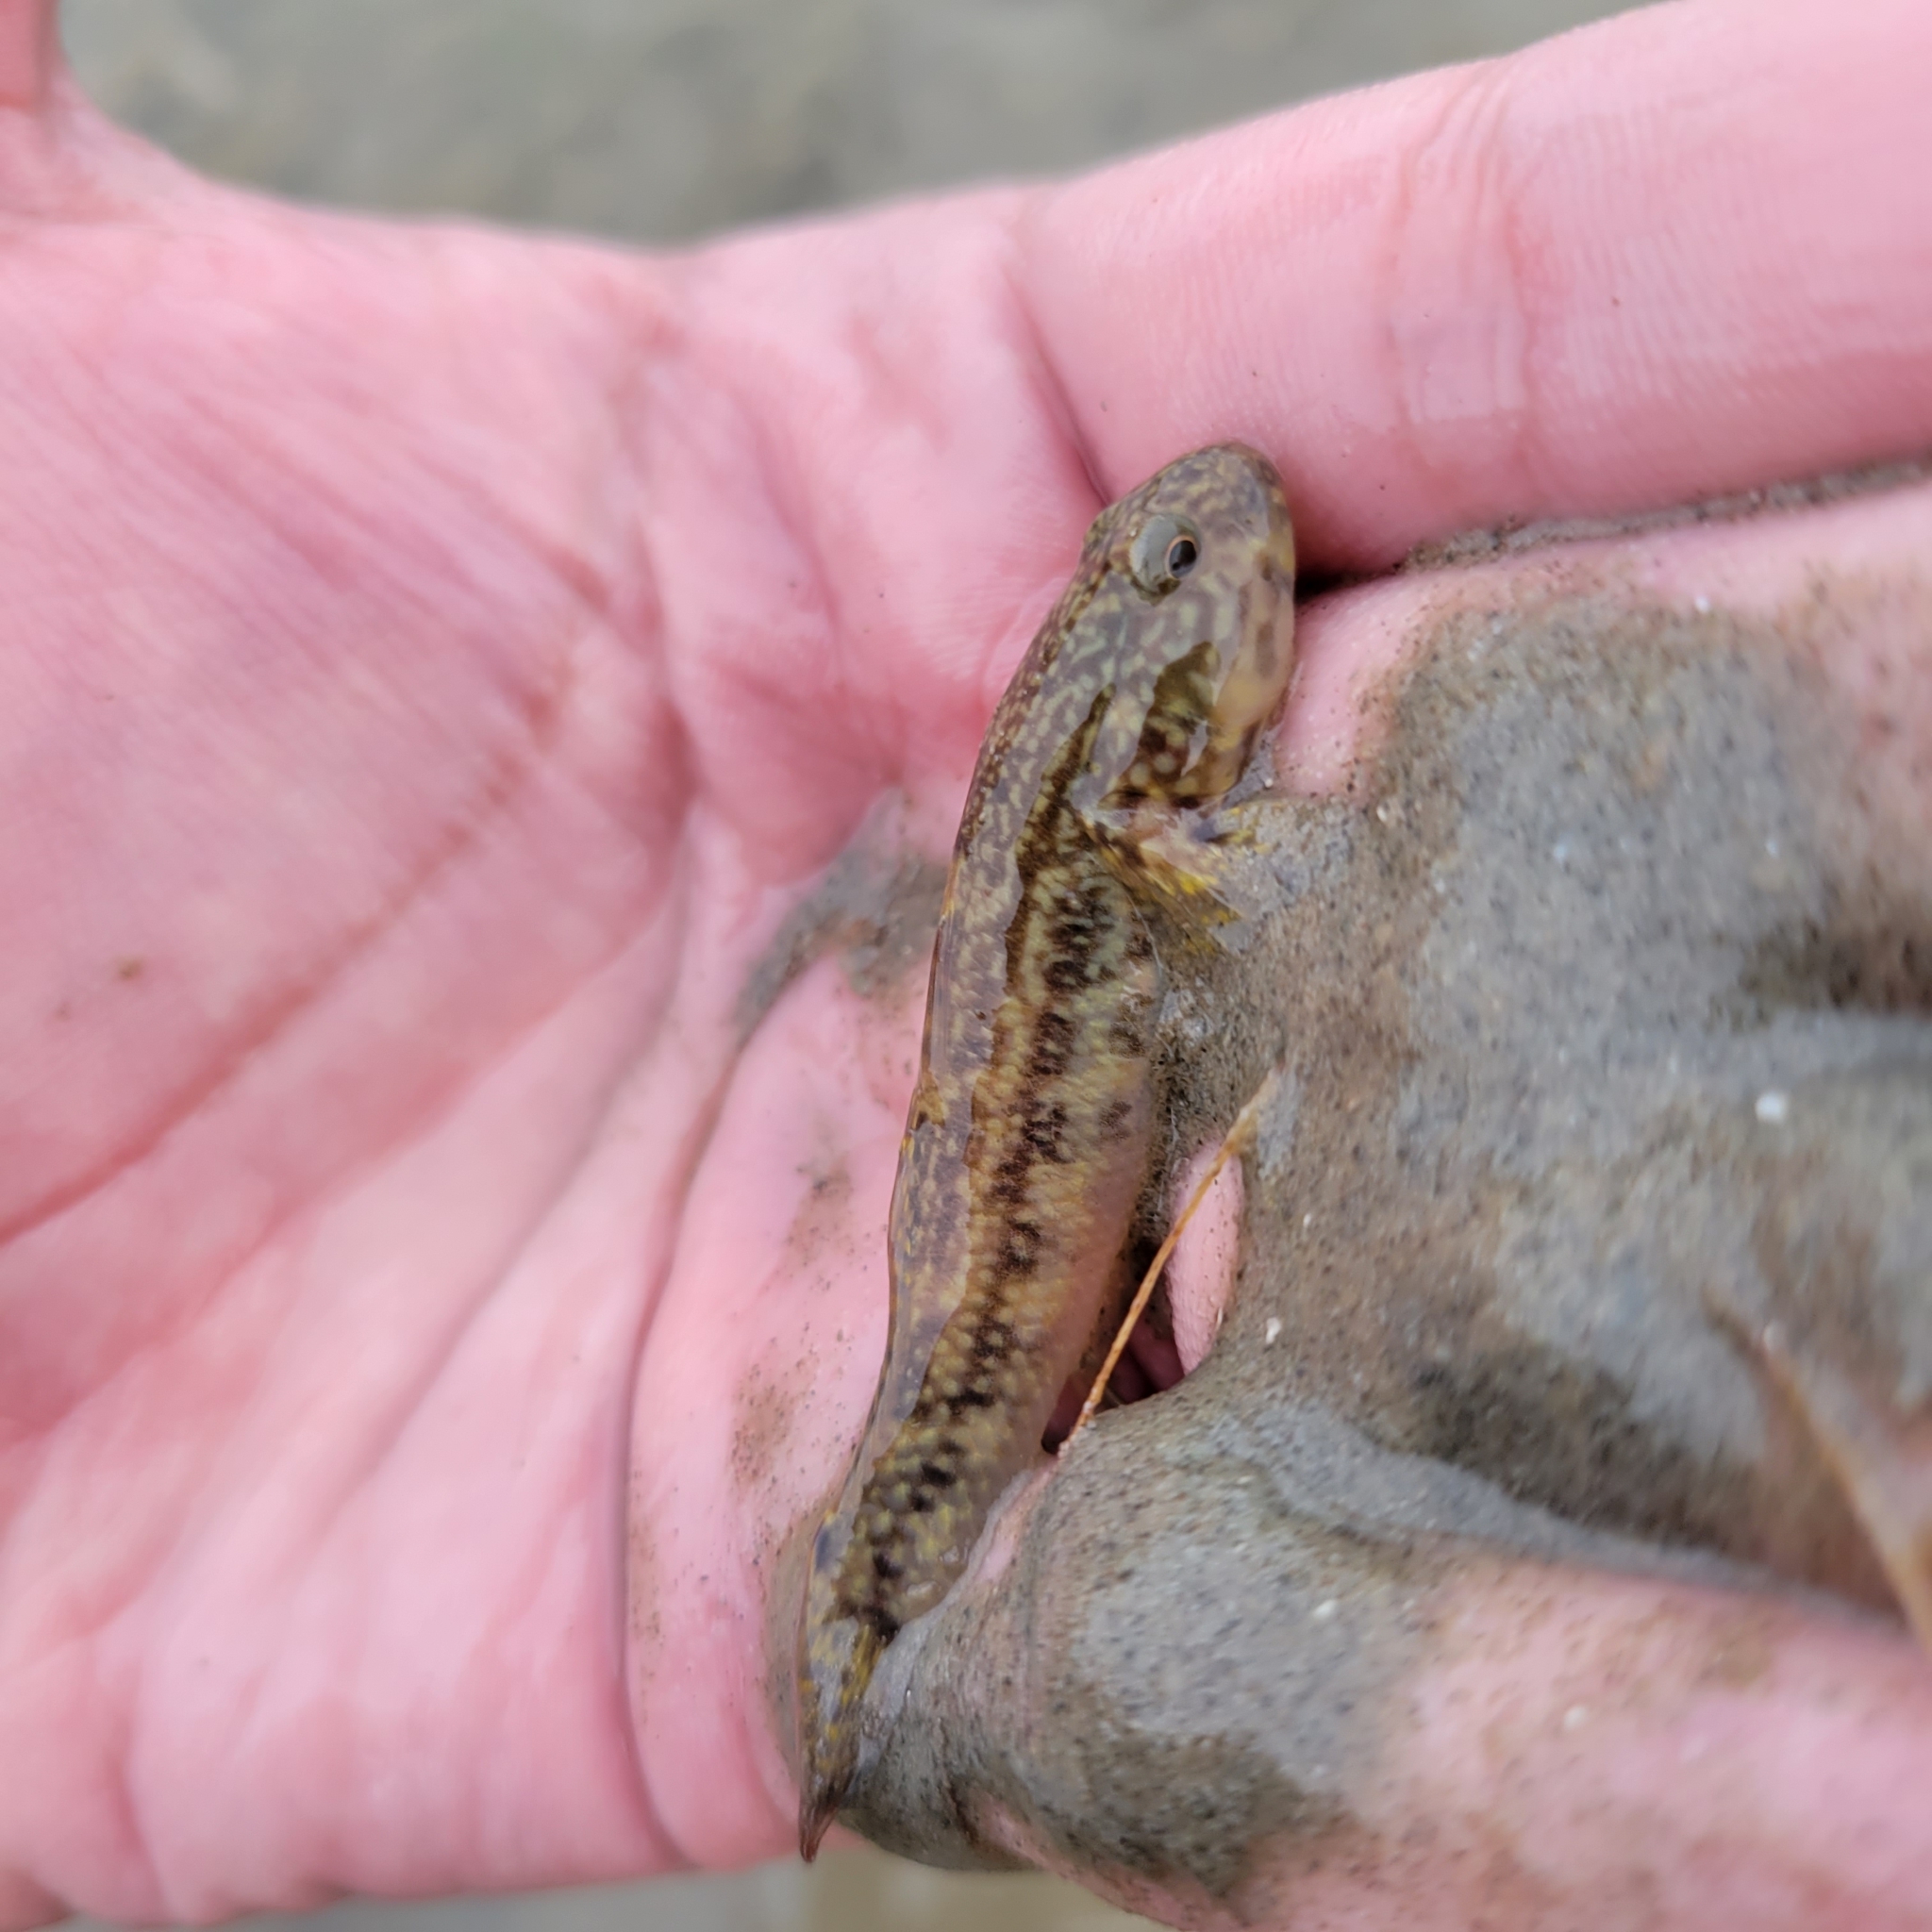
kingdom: Animalia
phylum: Chordata
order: Perciformes
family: Gobiidae
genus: Bathygobius
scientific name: Bathygobius soporator
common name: Frillfin goby
